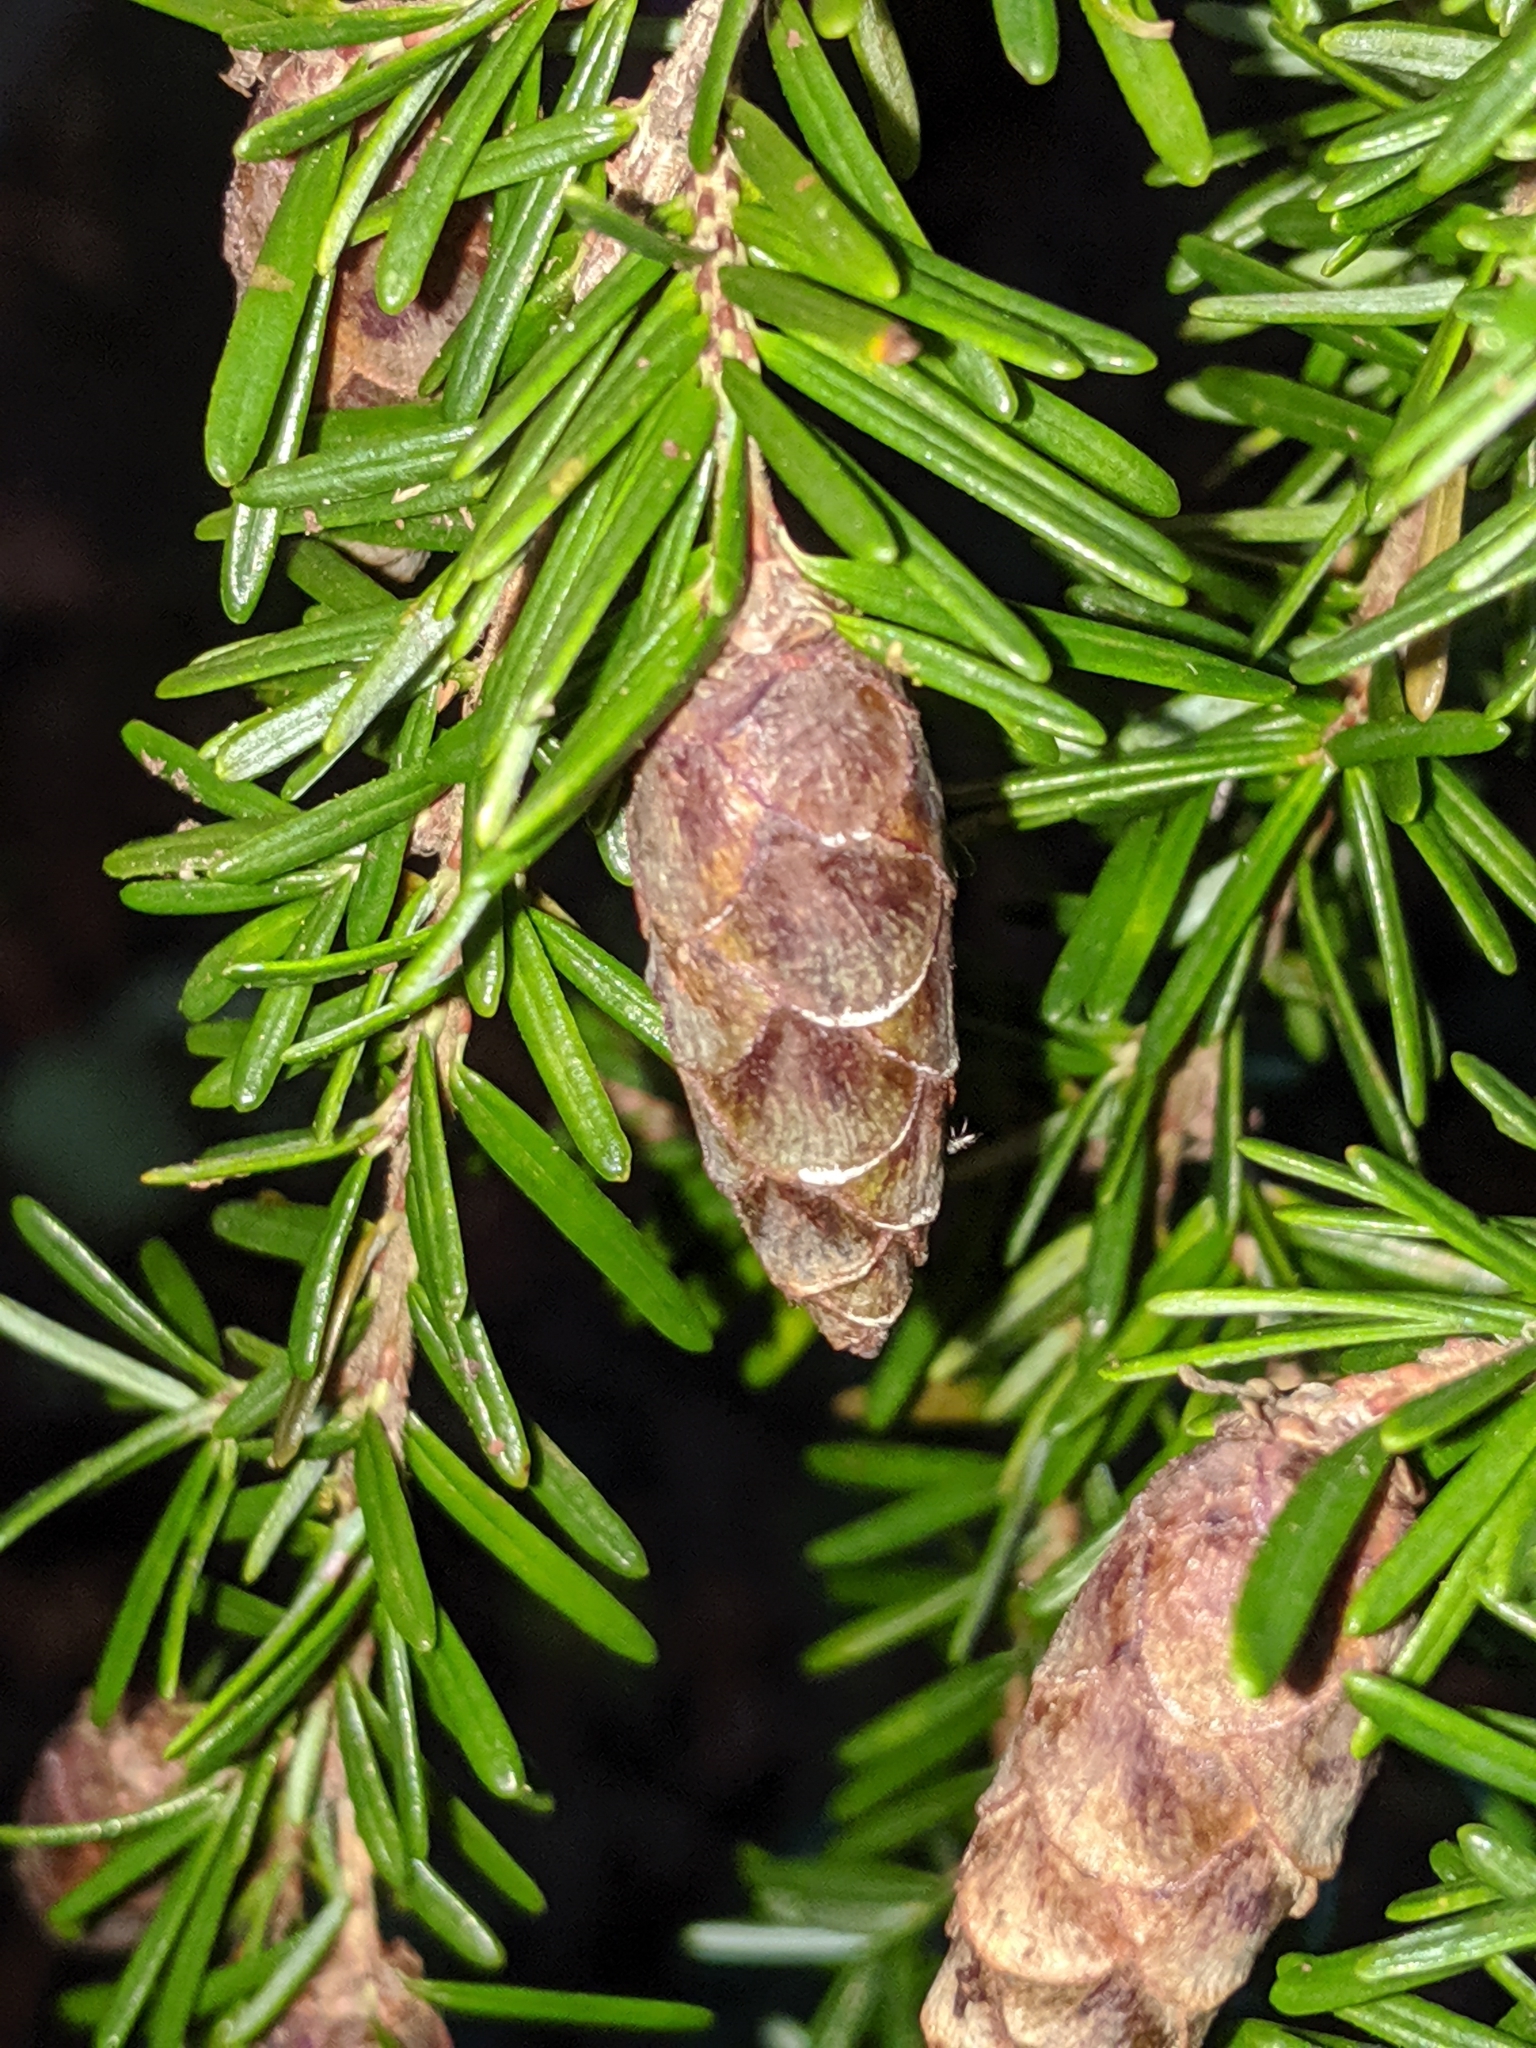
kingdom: Plantae
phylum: Tracheophyta
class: Pinopsida
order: Pinales
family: Pinaceae
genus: Tsuga
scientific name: Tsuga heterophylla
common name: Western hemlock
